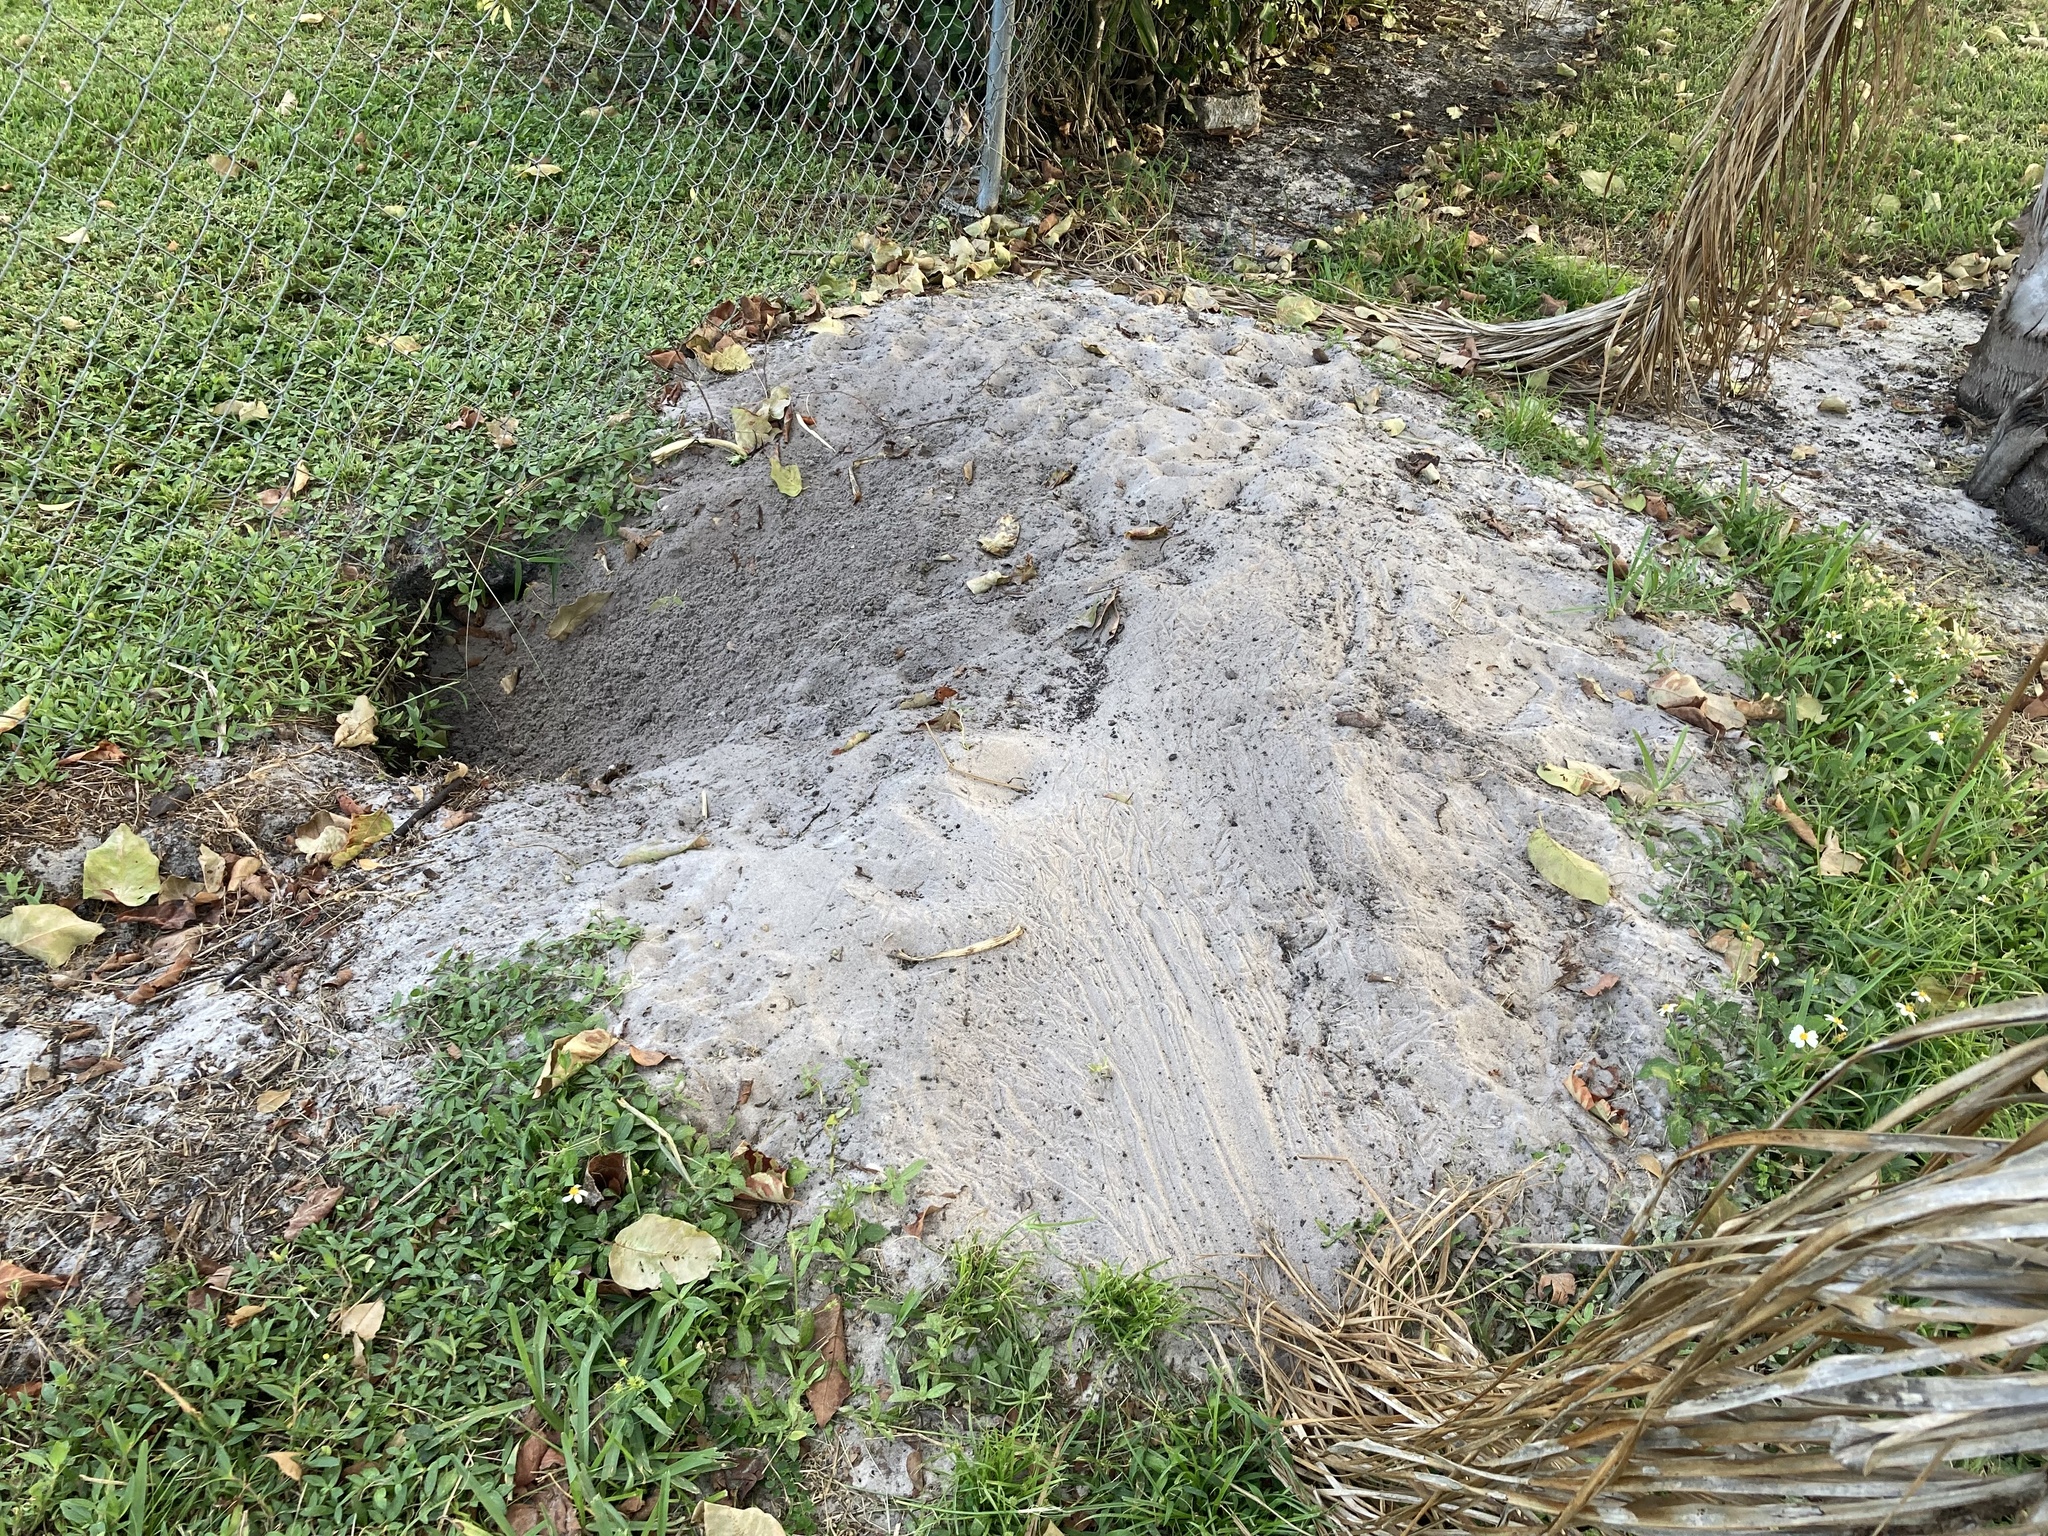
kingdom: Animalia
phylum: Chordata
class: Testudines
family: Testudinidae
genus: Gopherus
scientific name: Gopherus polyphemus
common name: Florida gopher tortoise
